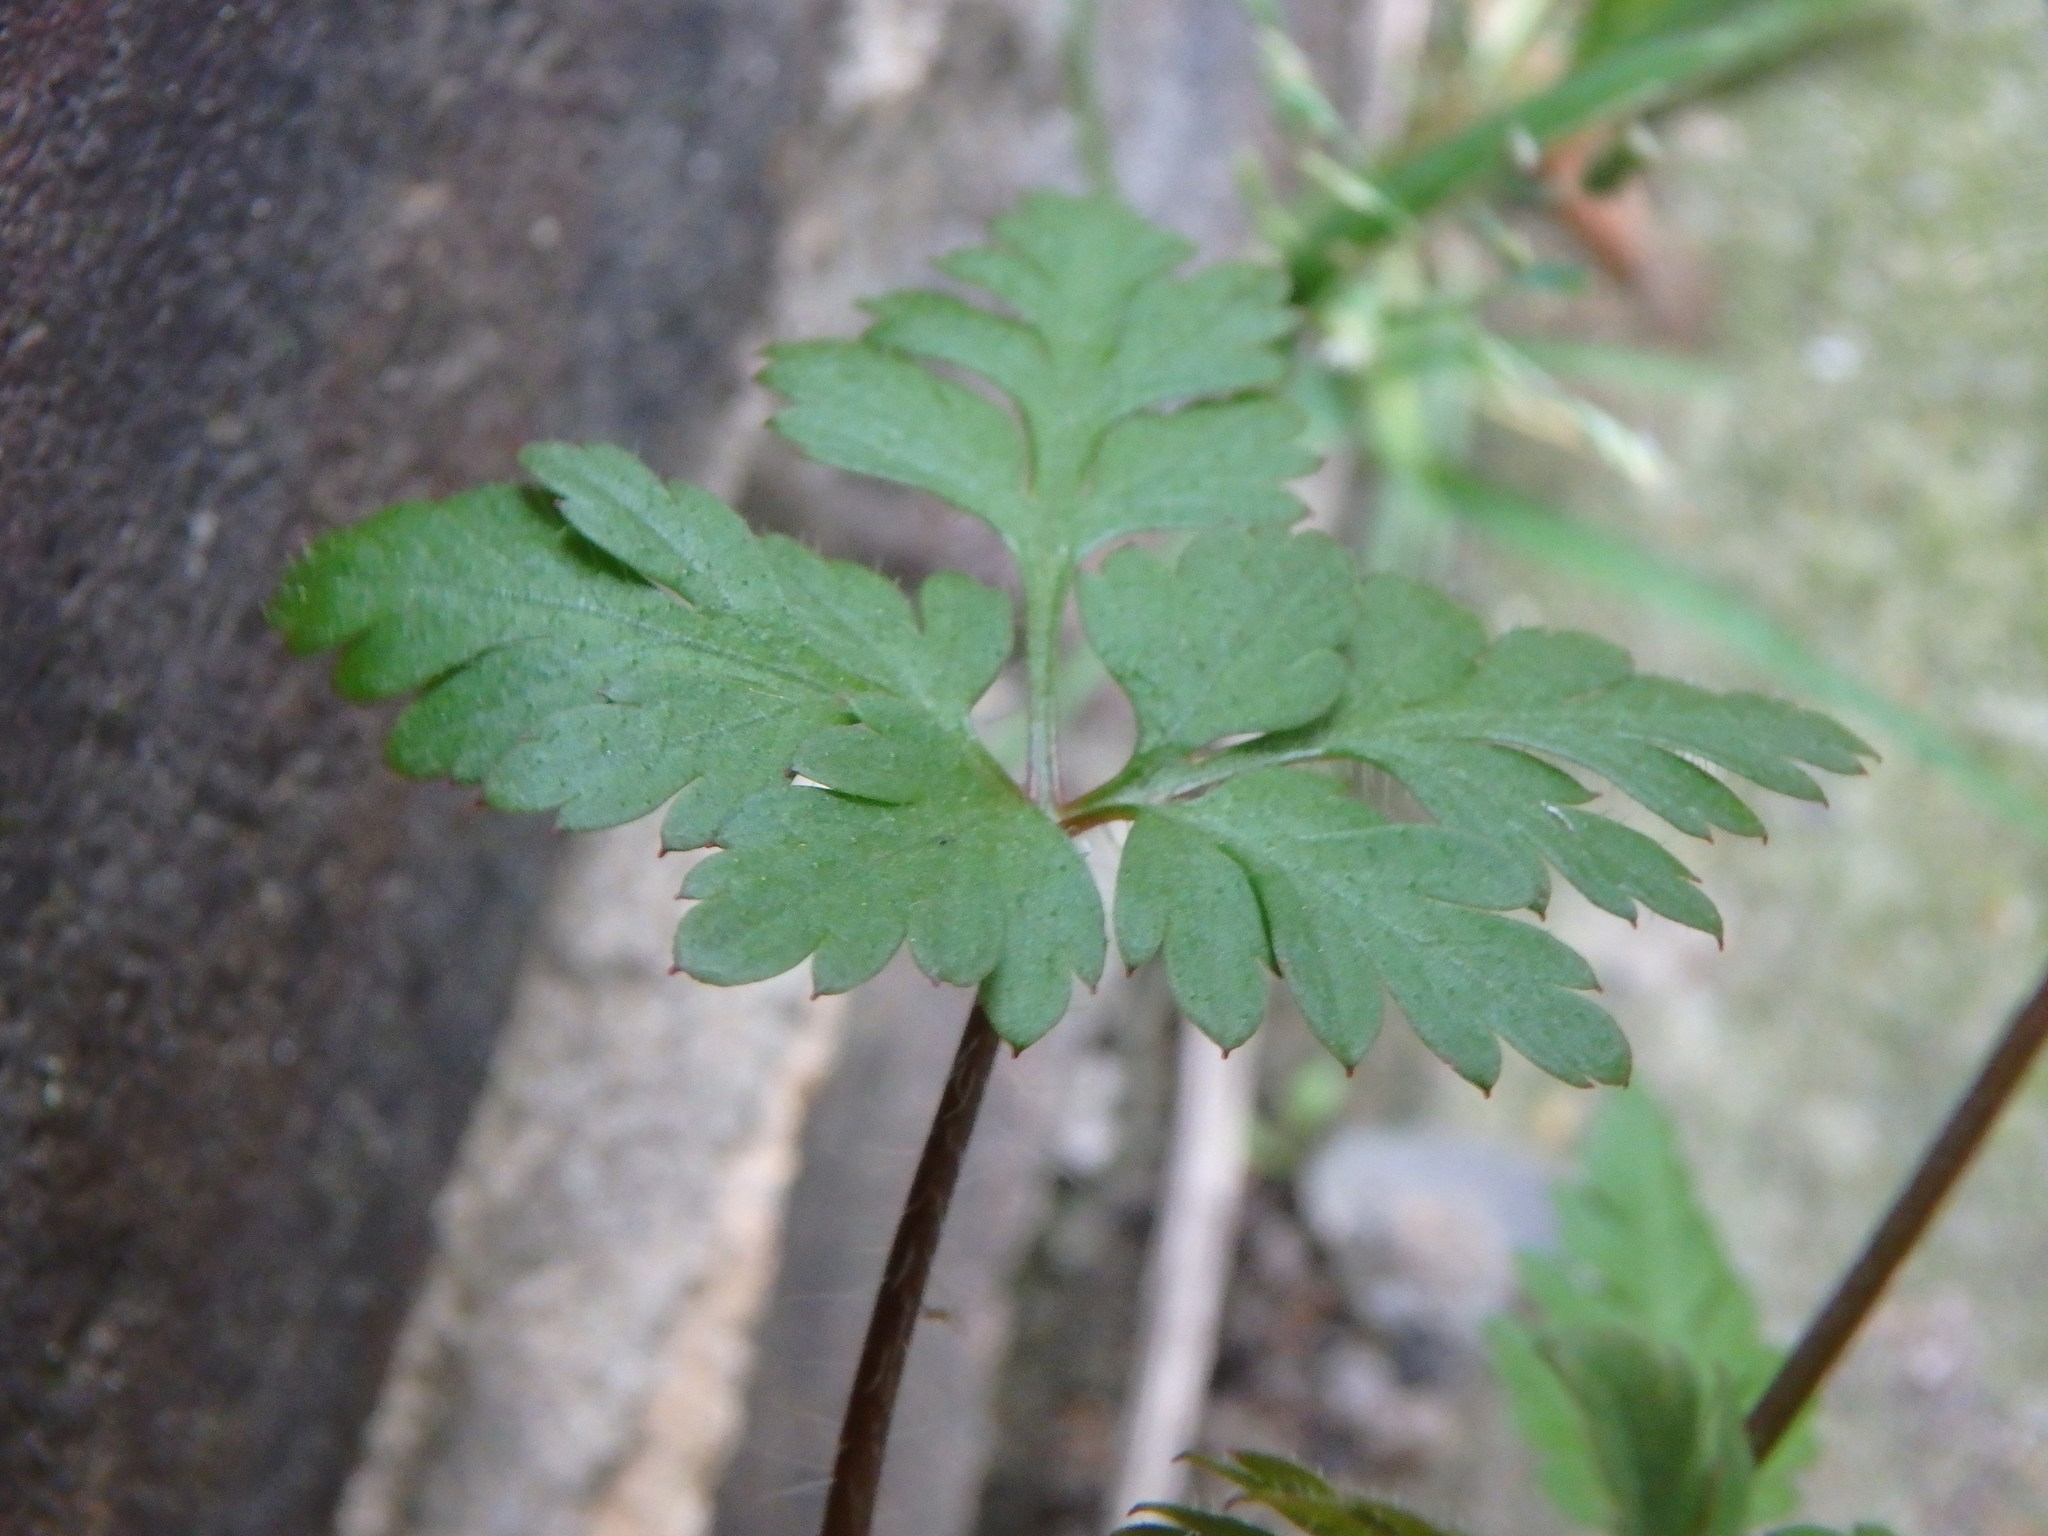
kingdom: Plantae
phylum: Tracheophyta
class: Magnoliopsida
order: Geraniales
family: Geraniaceae
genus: Geranium
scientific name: Geranium robertianum
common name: Herb-robert
